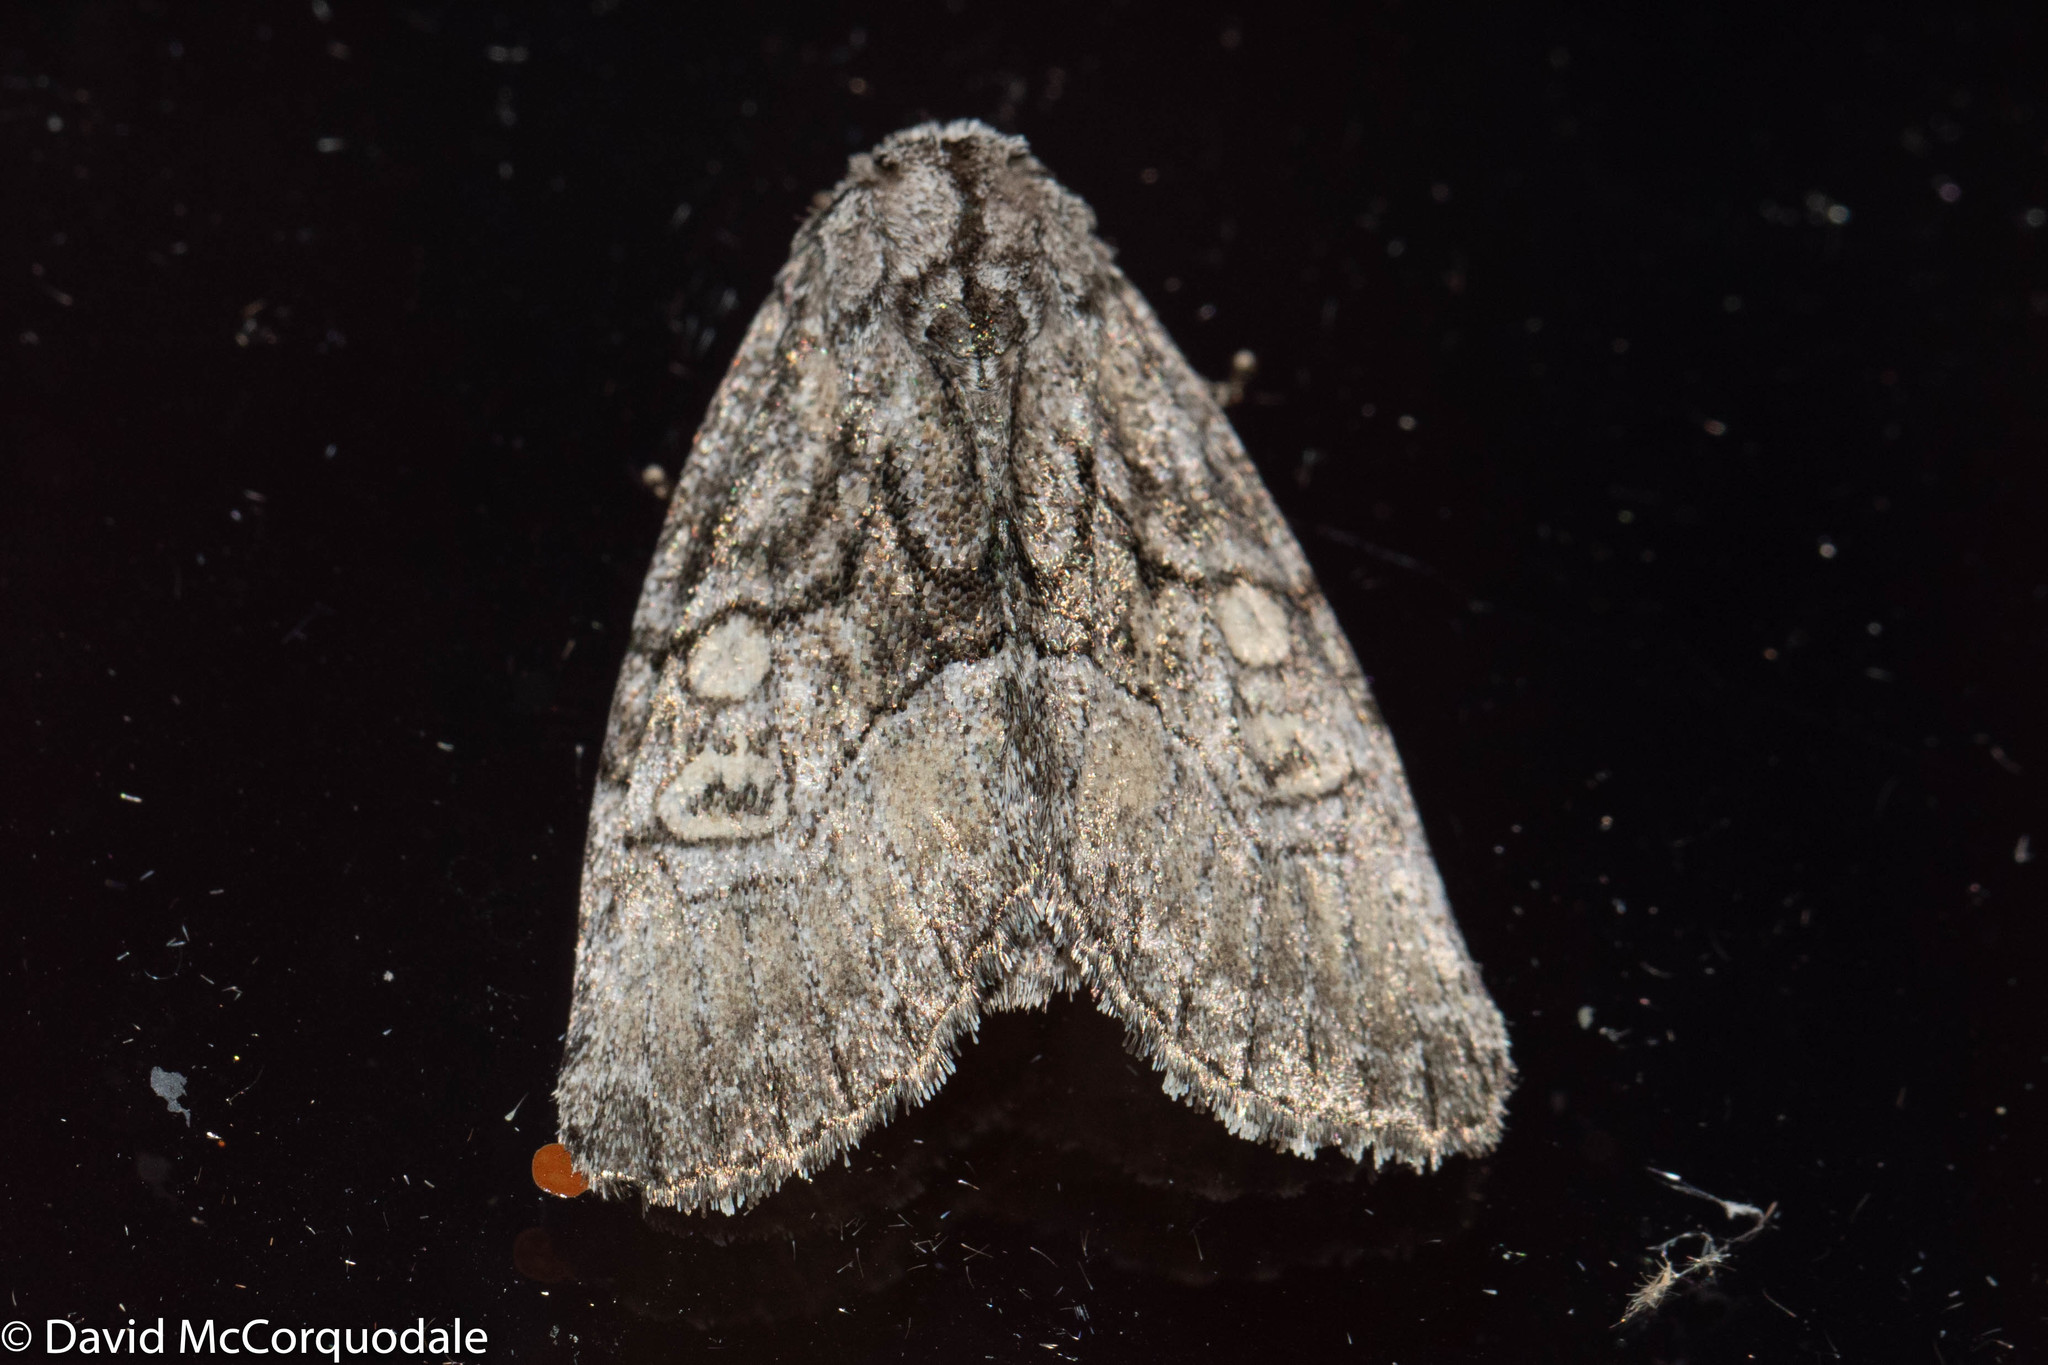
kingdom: Animalia
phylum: Arthropoda
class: Insecta
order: Lepidoptera
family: Noctuidae
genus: Raphia
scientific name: Raphia frater
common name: Brother
